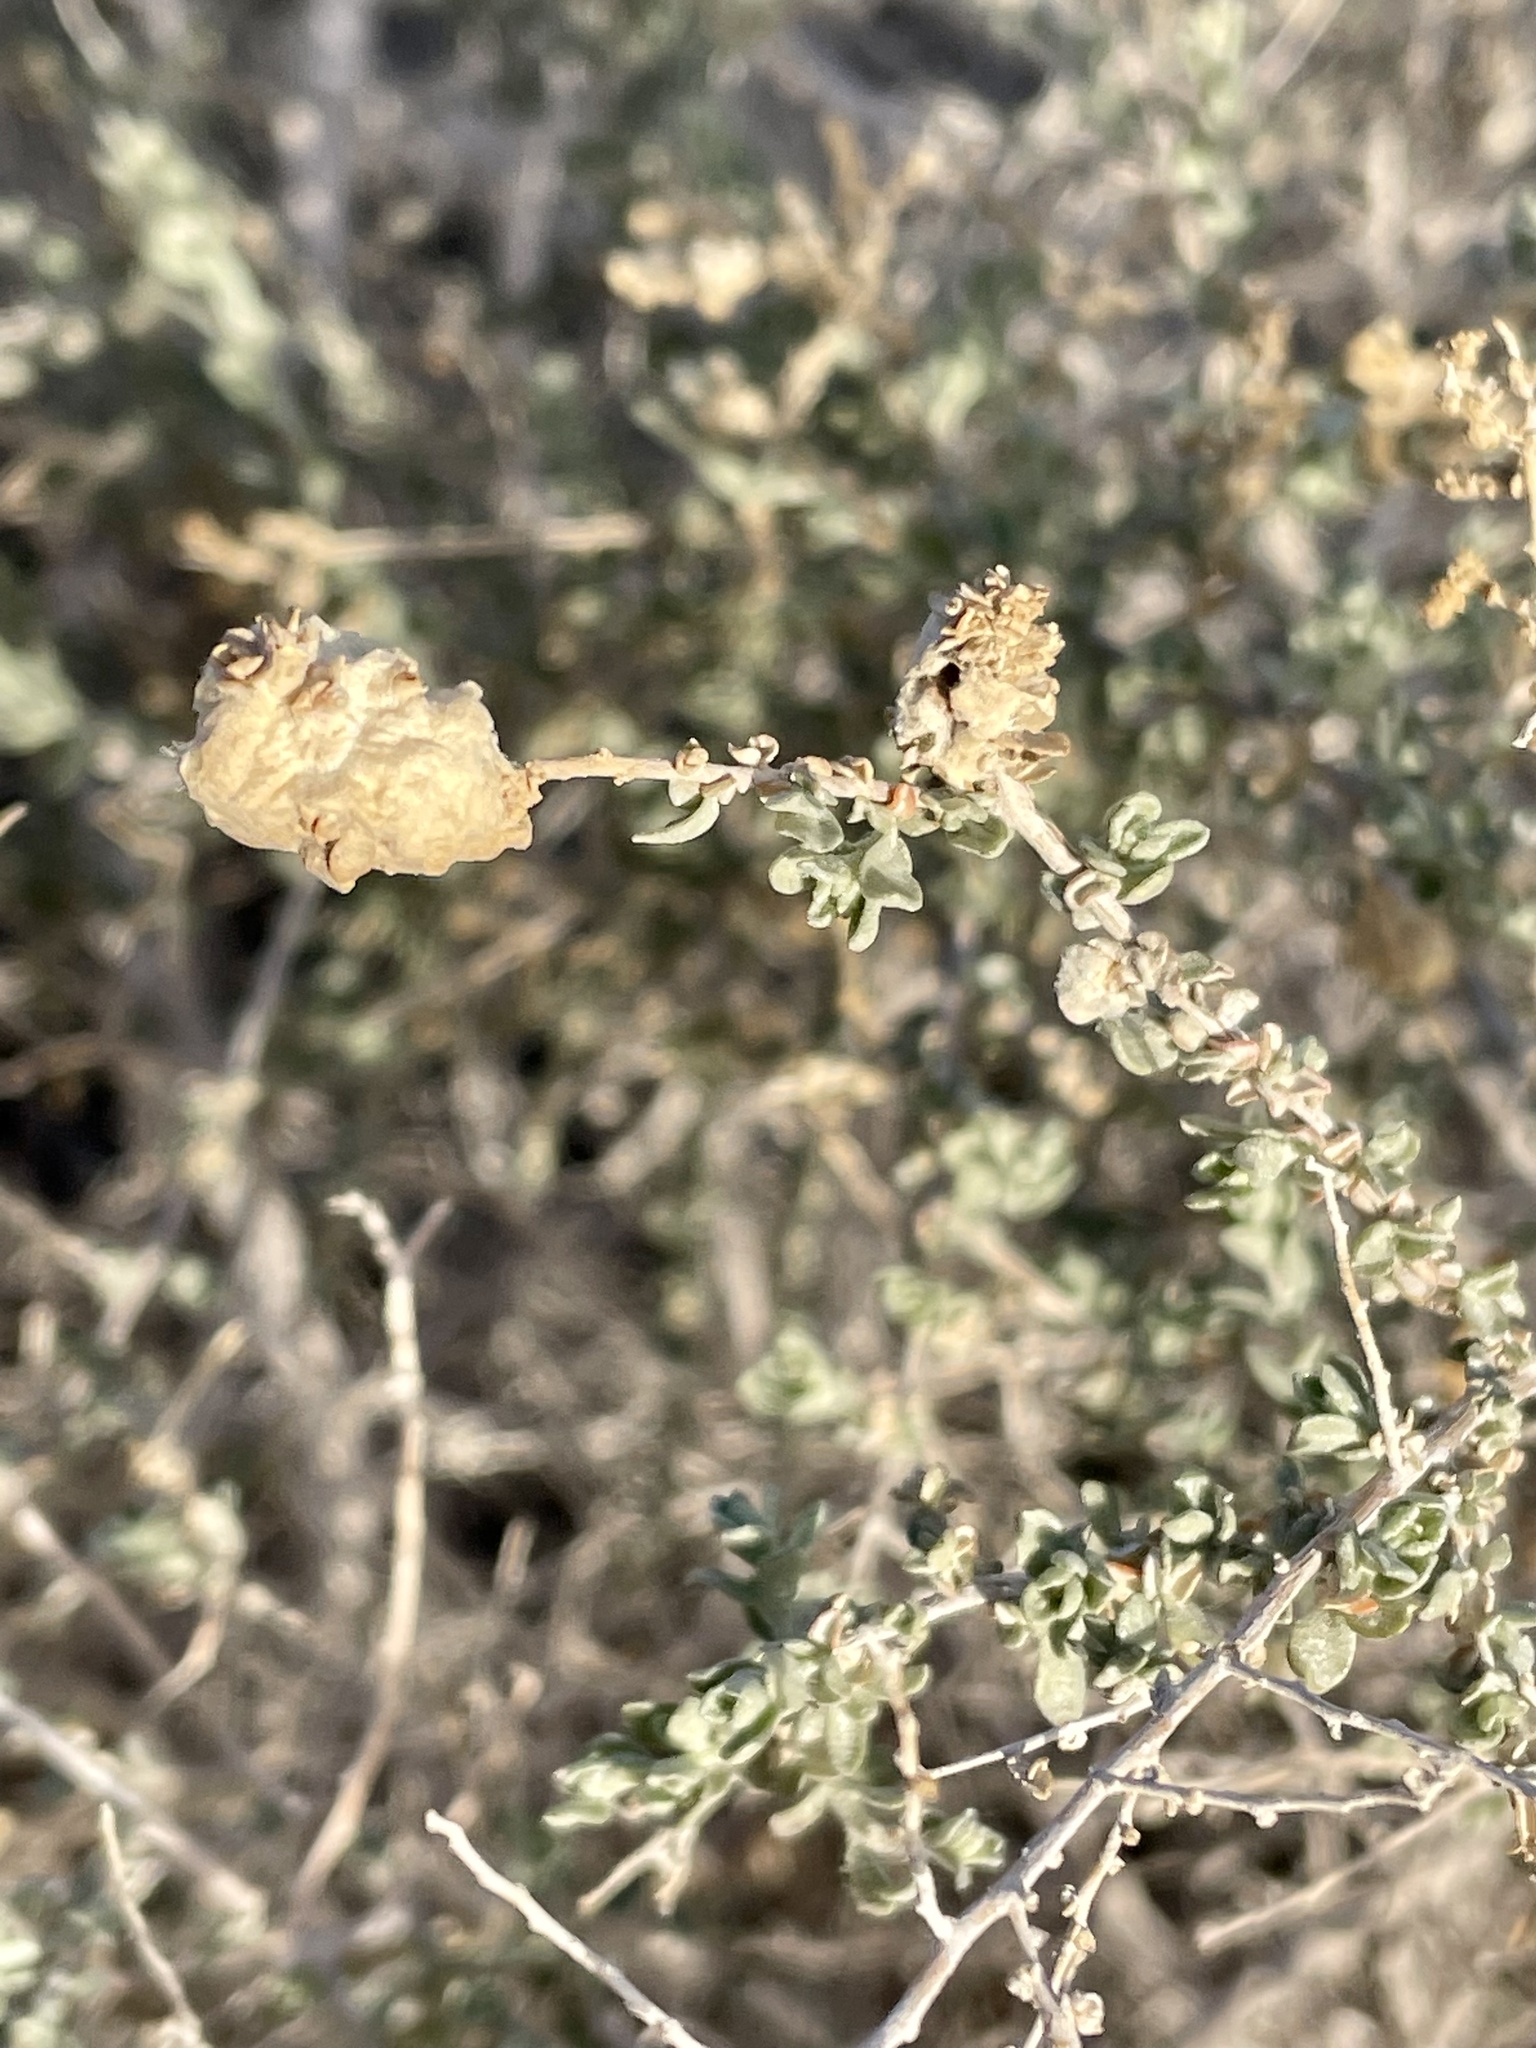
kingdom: Plantae
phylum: Tracheophyta
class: Magnoliopsida
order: Caryophyllales
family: Amaranthaceae
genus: Atriplex
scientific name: Atriplex polycarpa
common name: Desert saltbush
